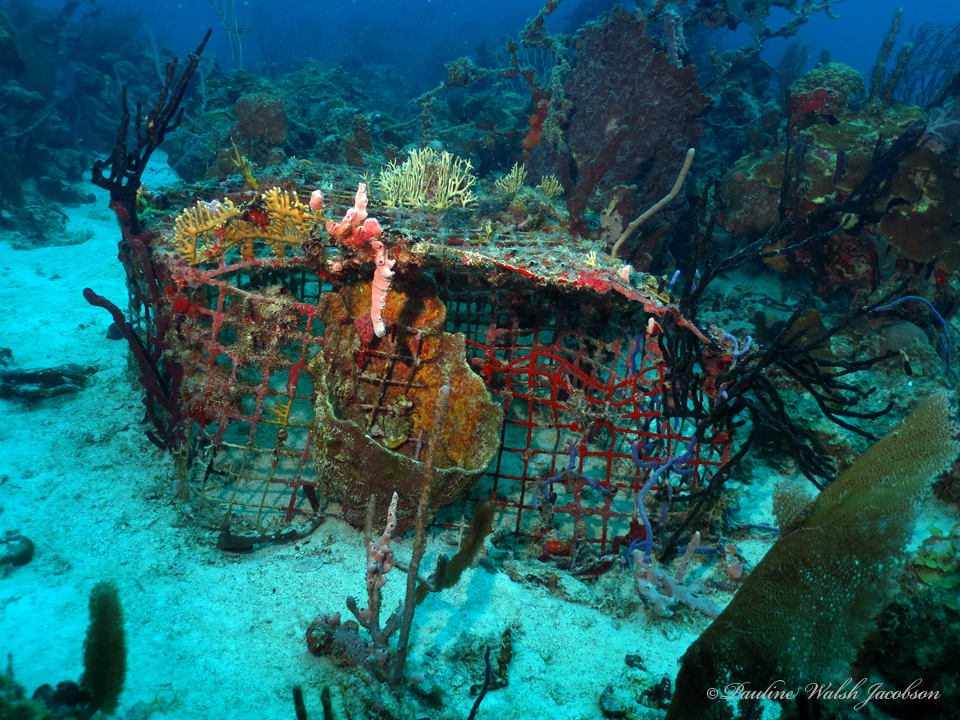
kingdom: Animalia
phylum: Cnidaria
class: Hydrozoa
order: Anthoathecata
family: Milleporidae
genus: Millepora
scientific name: Millepora alcicornis
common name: Branching fire coral
